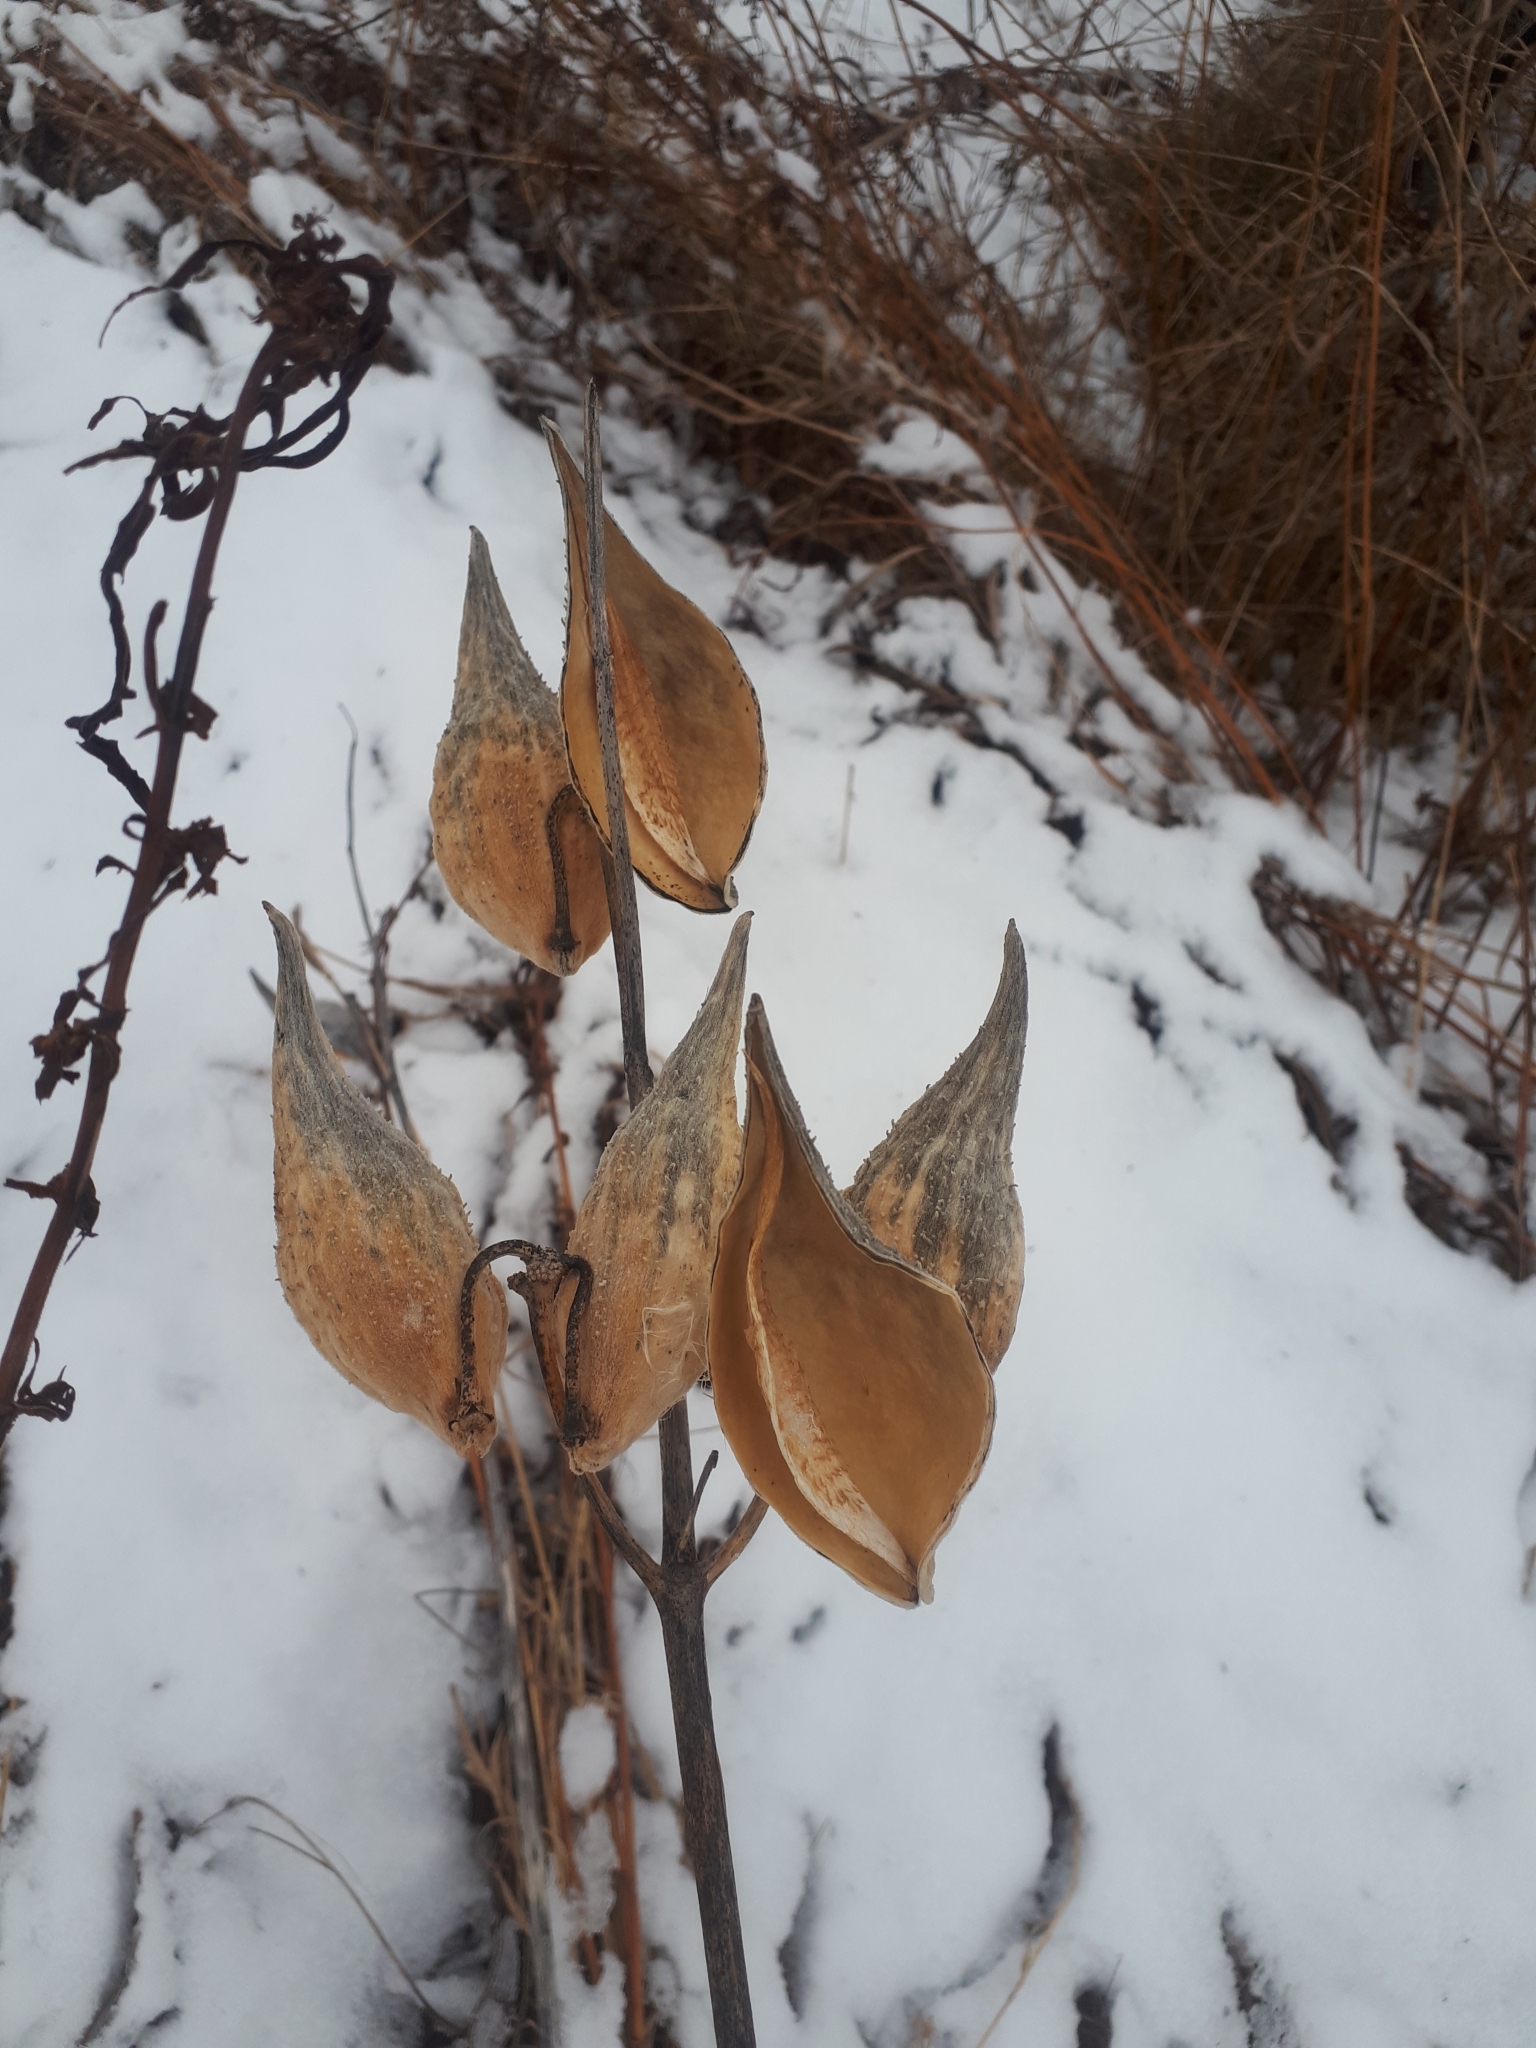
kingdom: Plantae
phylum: Tracheophyta
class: Magnoliopsida
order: Gentianales
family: Apocynaceae
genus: Asclepias
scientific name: Asclepias syriaca
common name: Common milkweed
